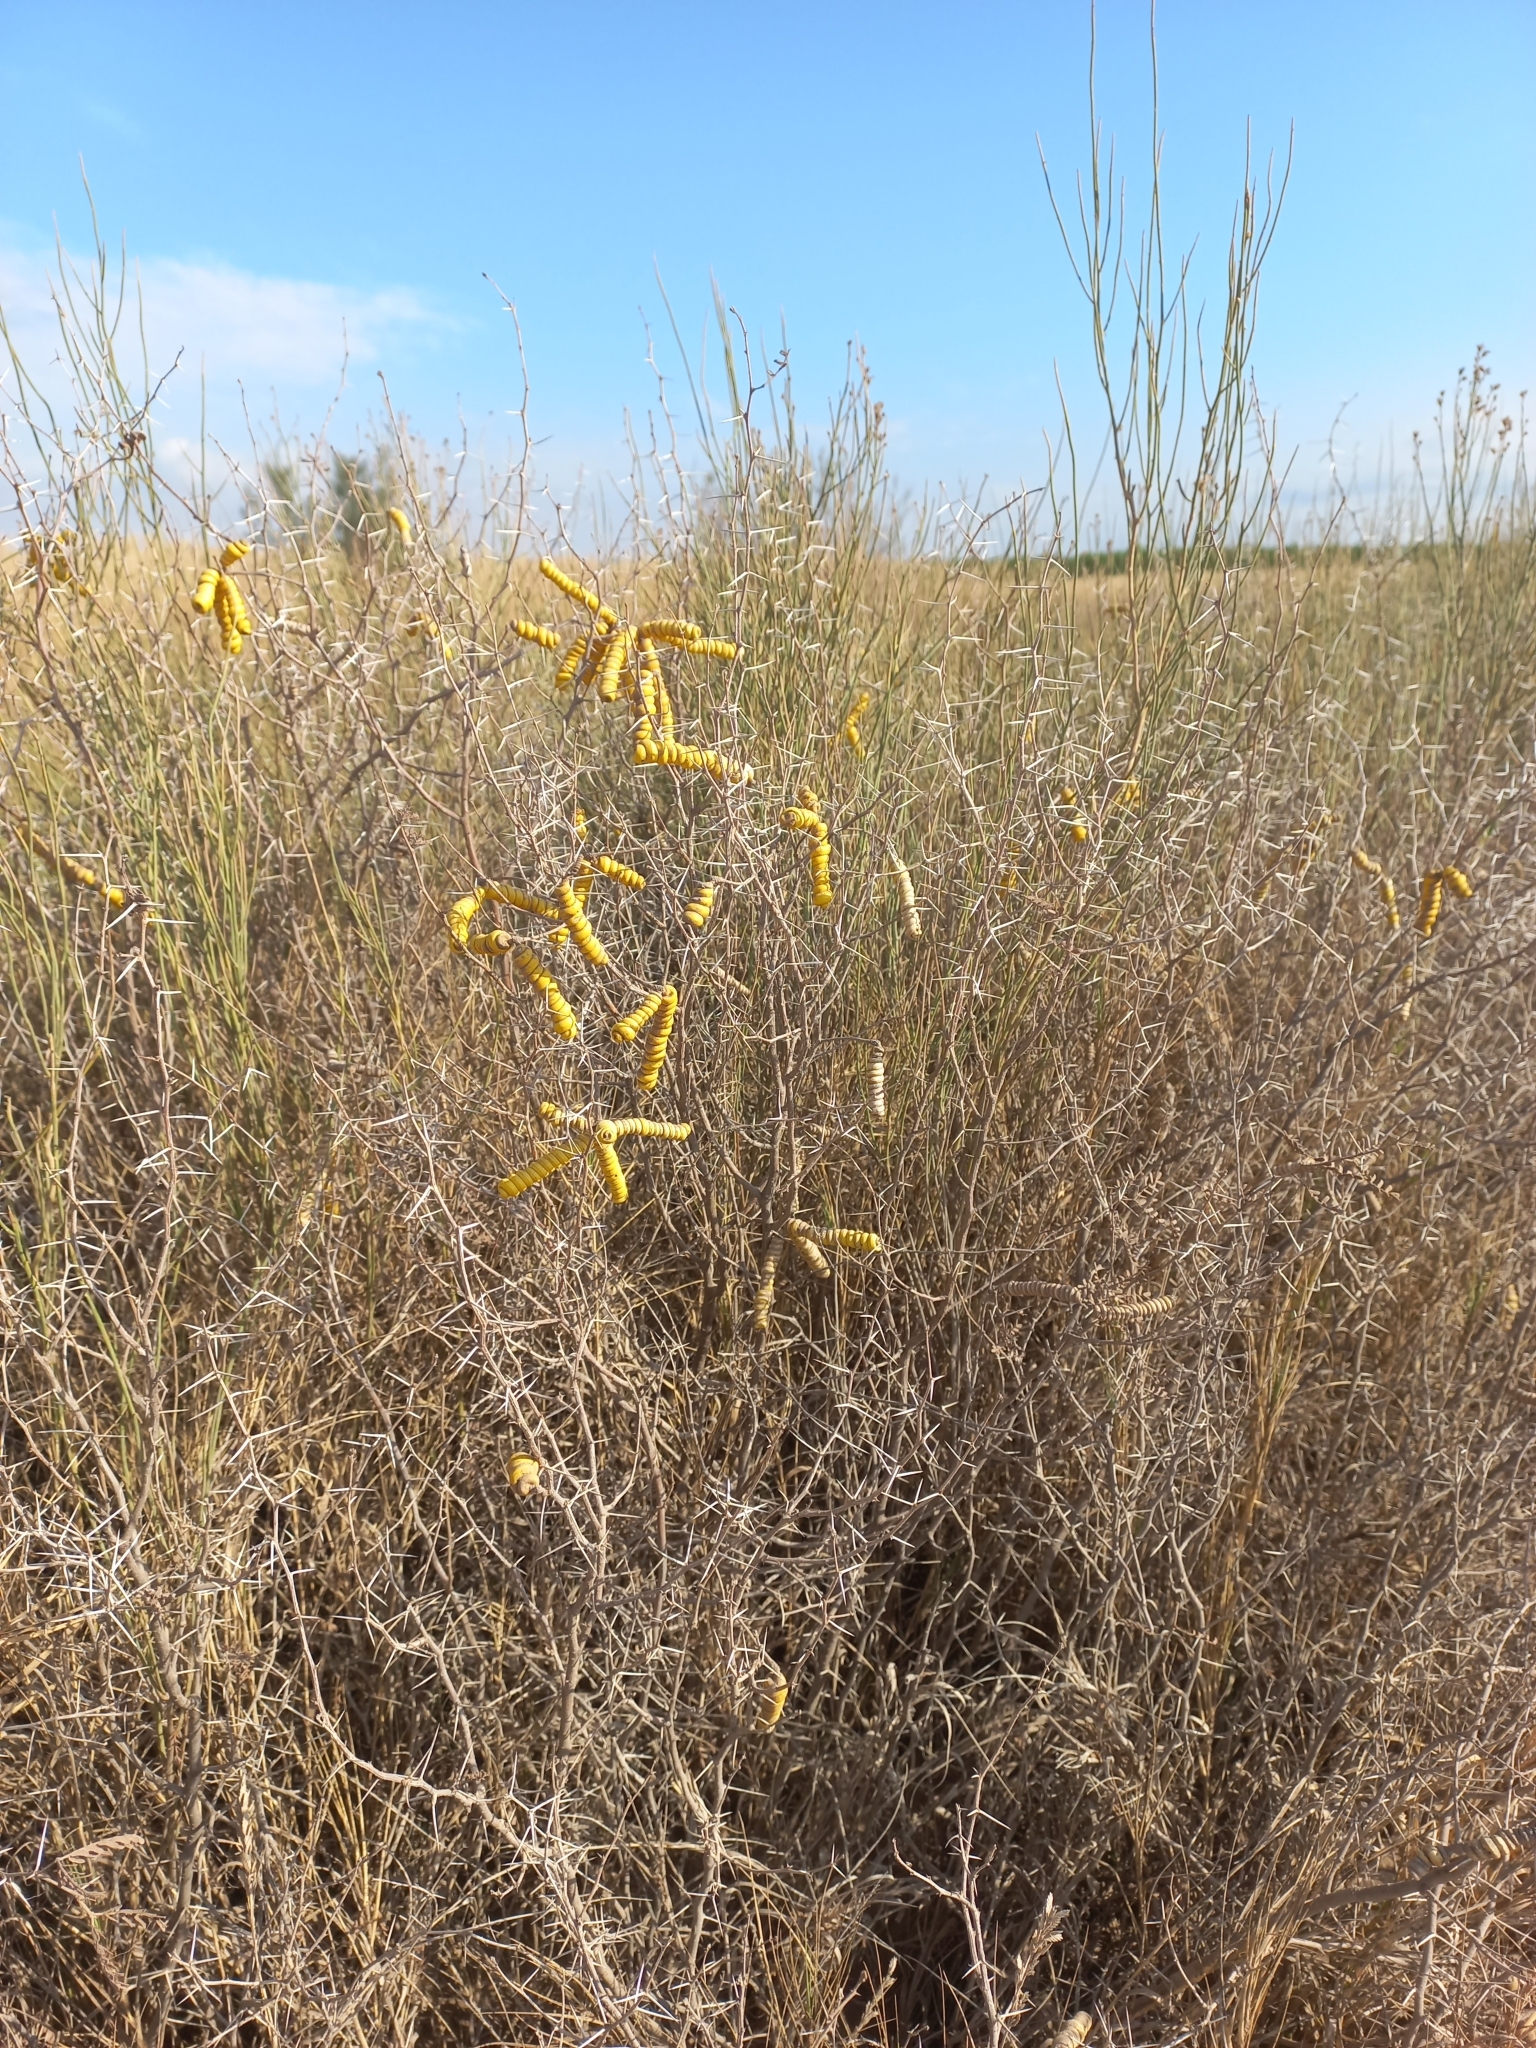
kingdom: Plantae
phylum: Tracheophyta
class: Magnoliopsida
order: Fabales
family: Fabaceae
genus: Prosopis
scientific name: Prosopis strombulifera
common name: Creeping mesquite
